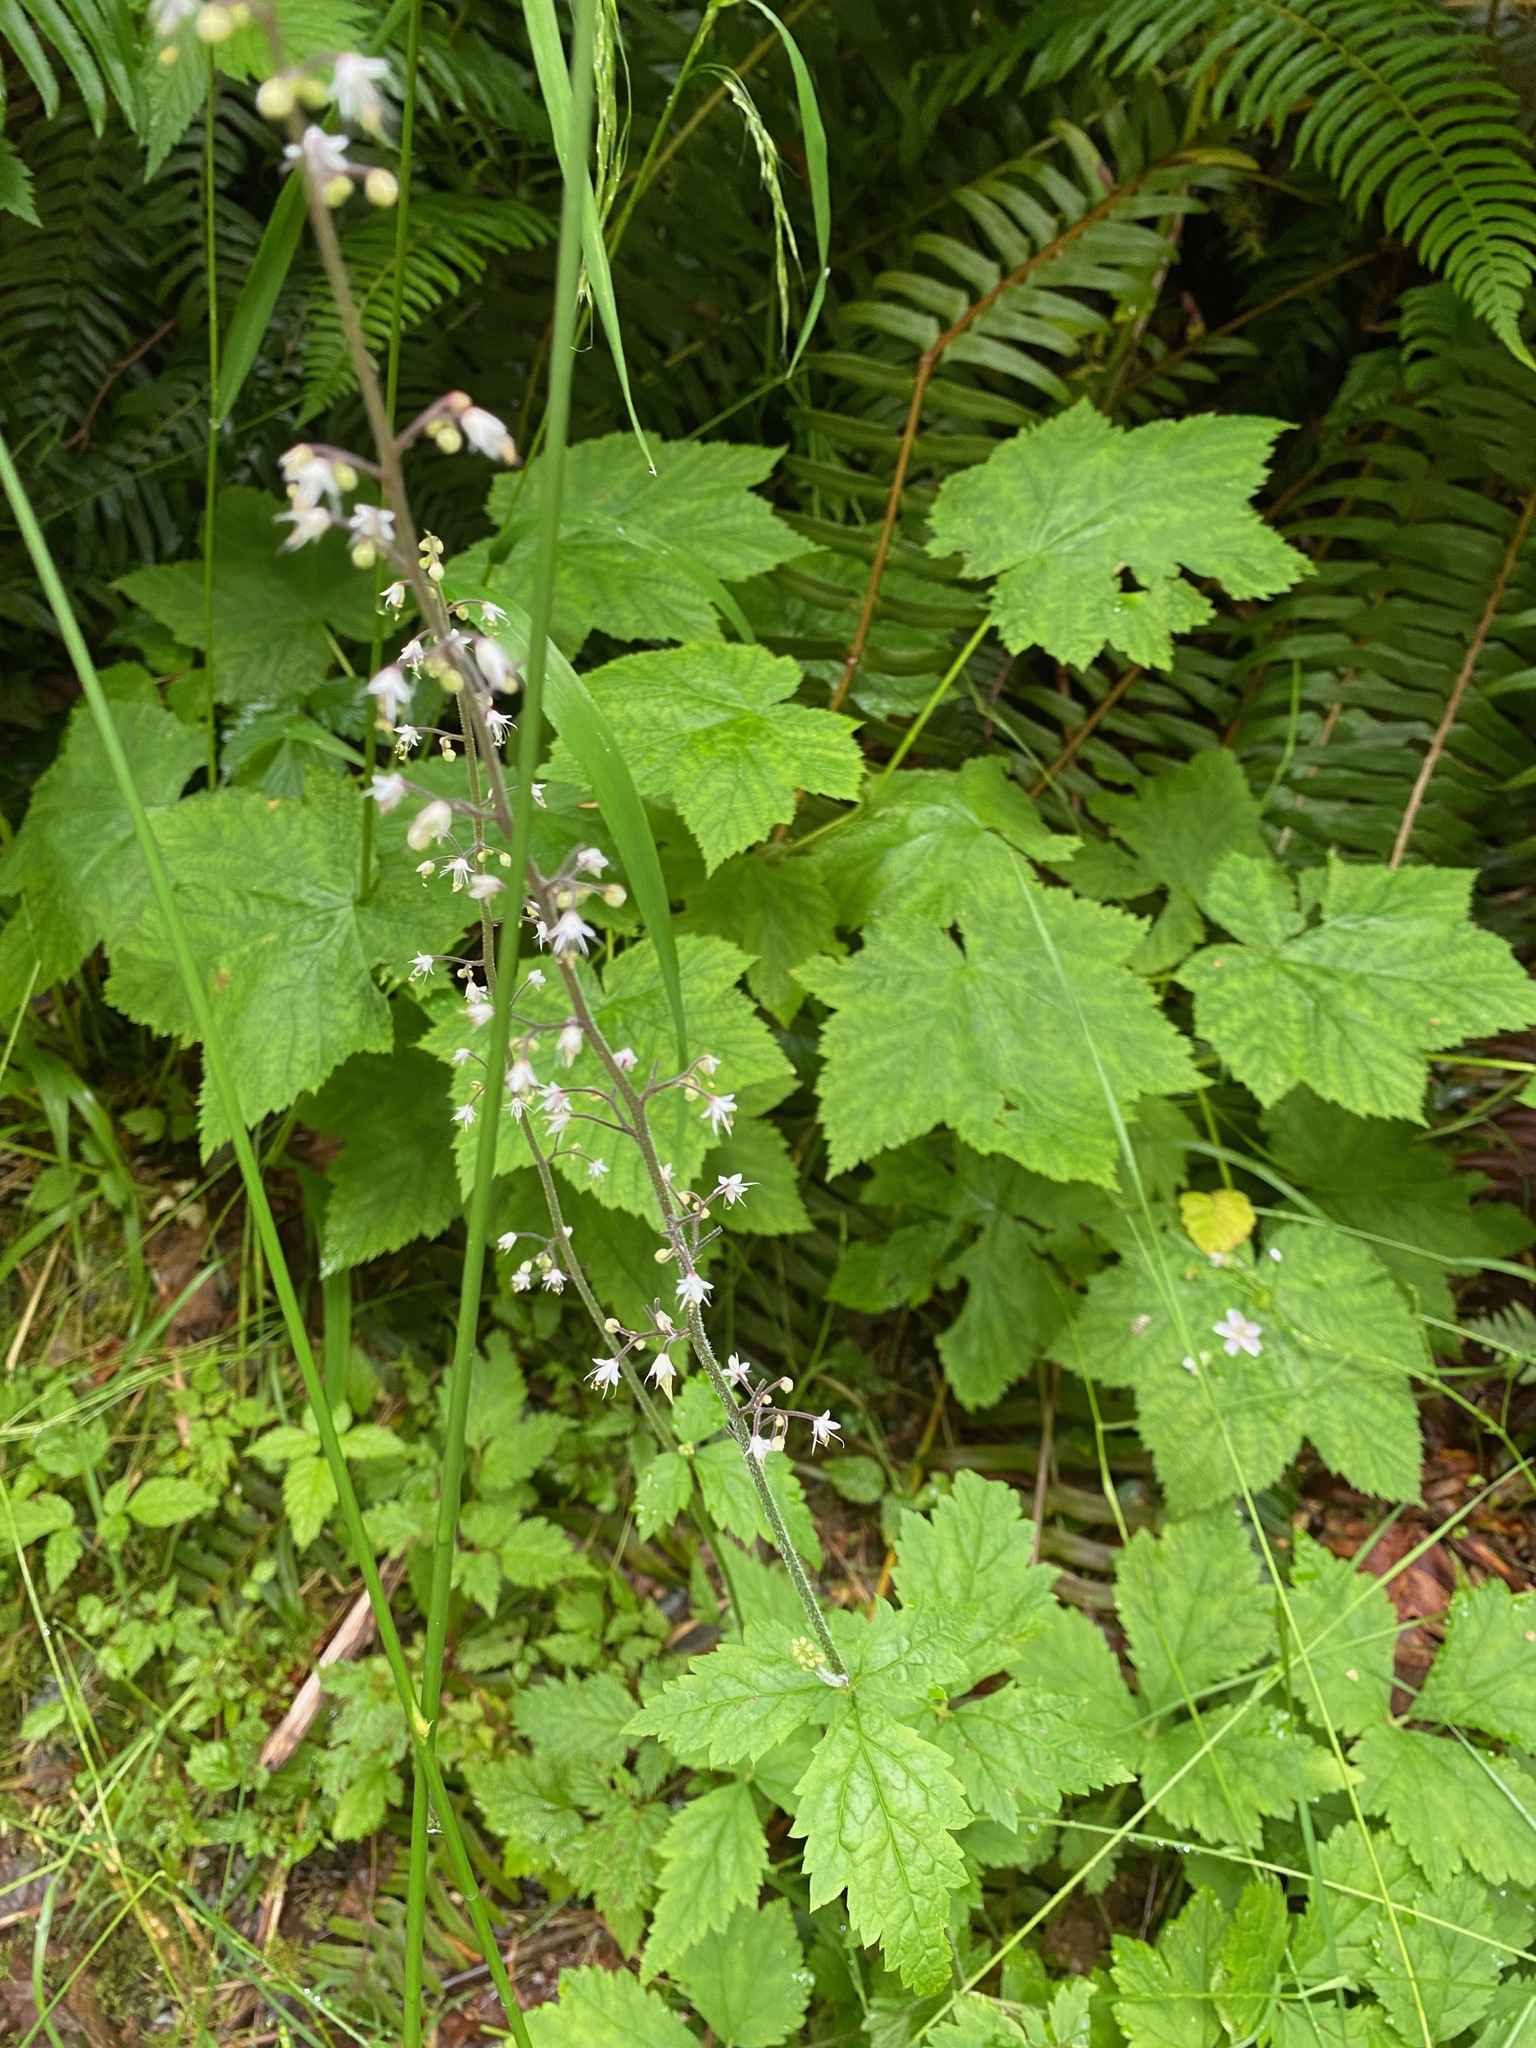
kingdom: Plantae
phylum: Tracheophyta
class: Magnoliopsida
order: Saxifragales
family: Saxifragaceae
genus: Tiarella
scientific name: Tiarella trifoliata
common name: Sugar-scoop
